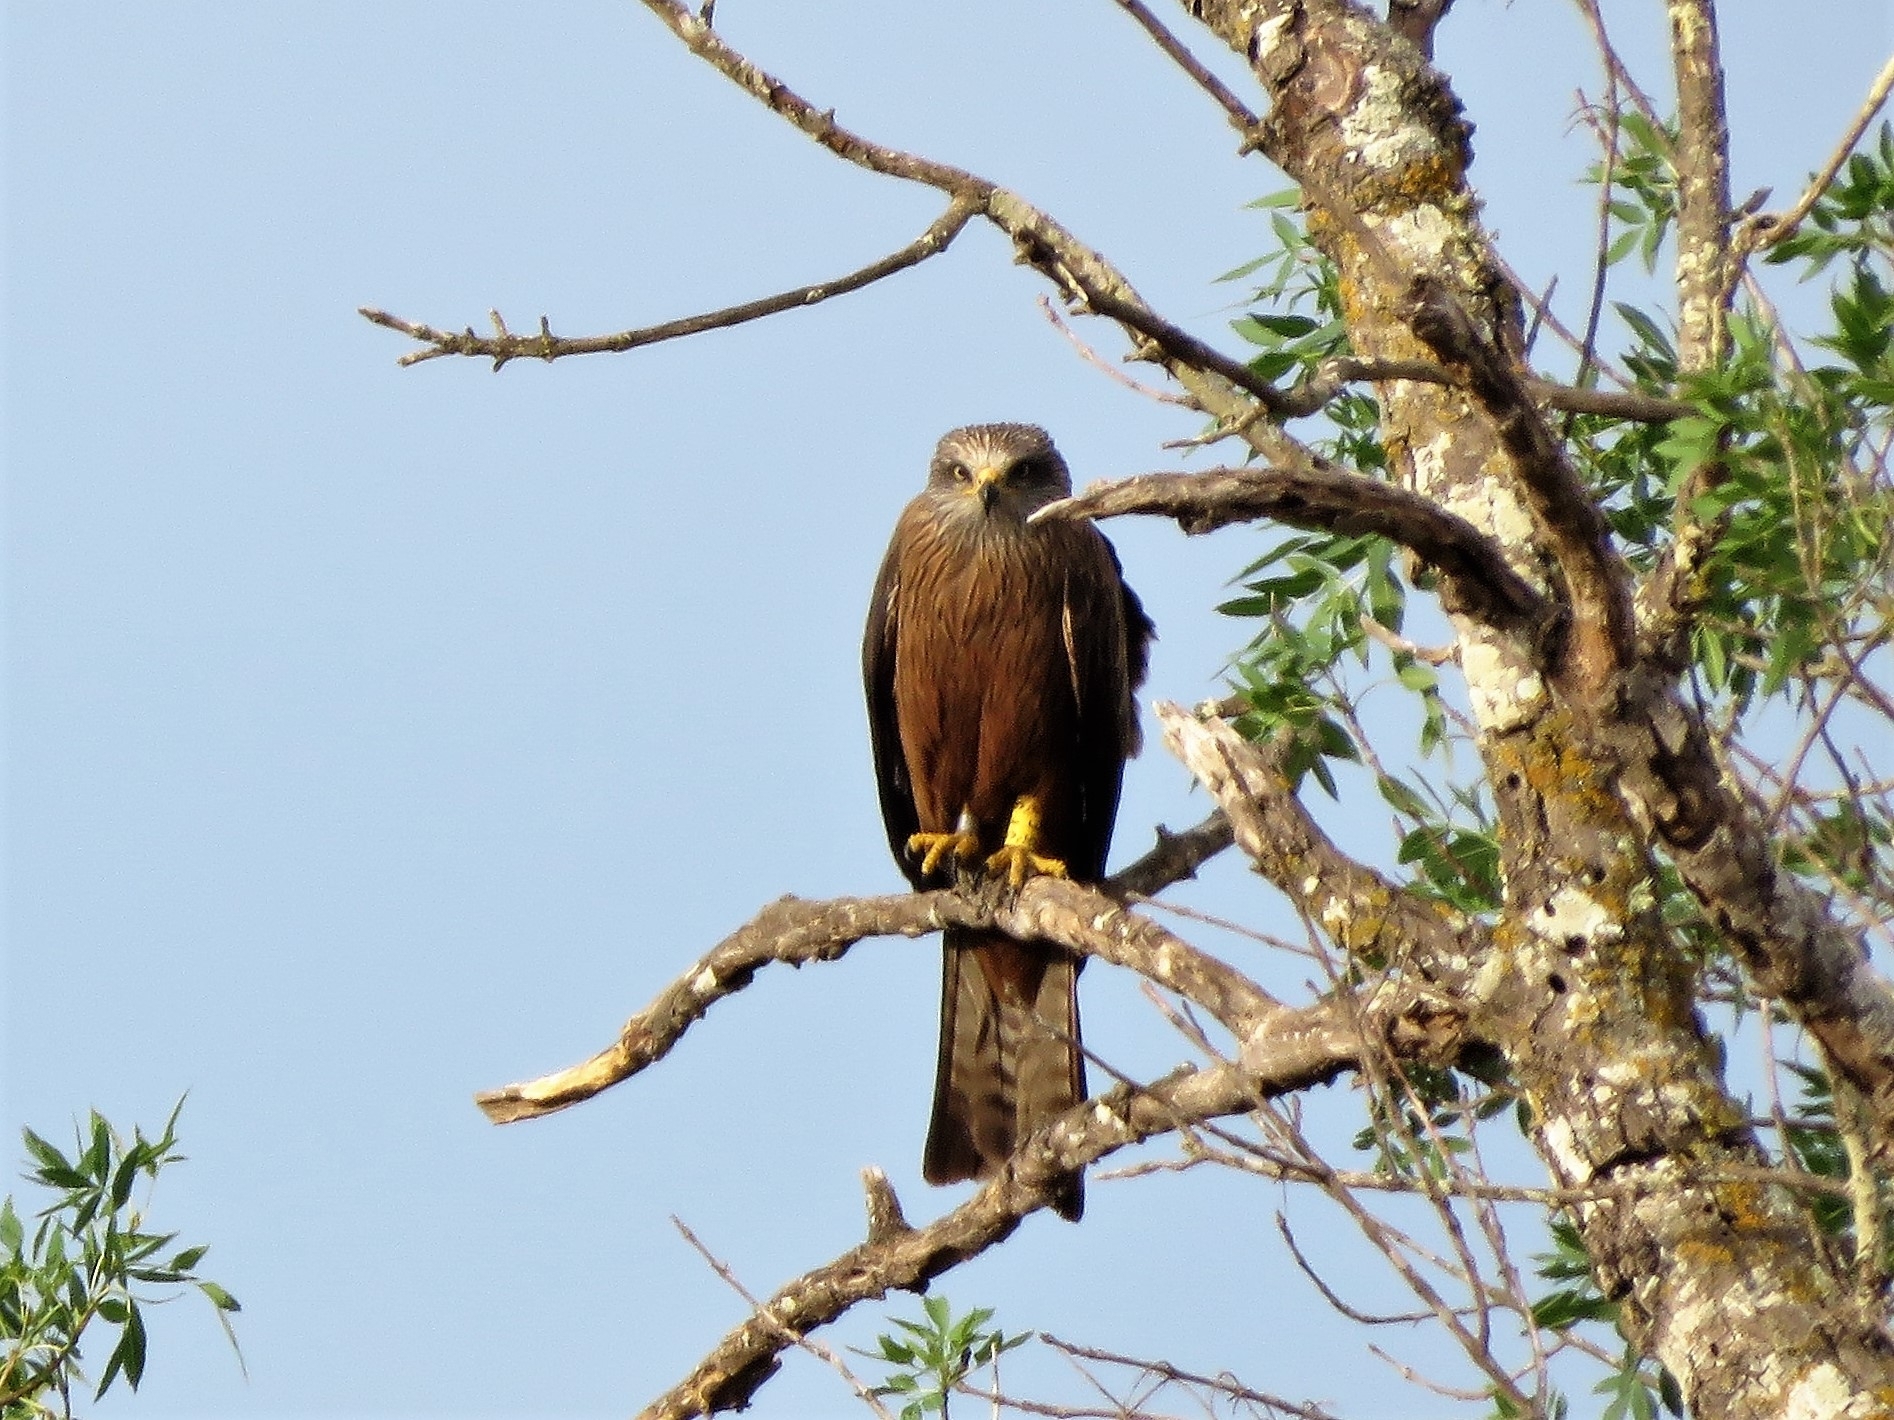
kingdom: Animalia
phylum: Chordata
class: Aves
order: Accipitriformes
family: Accipitridae
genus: Milvus
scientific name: Milvus migrans
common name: Black kite
